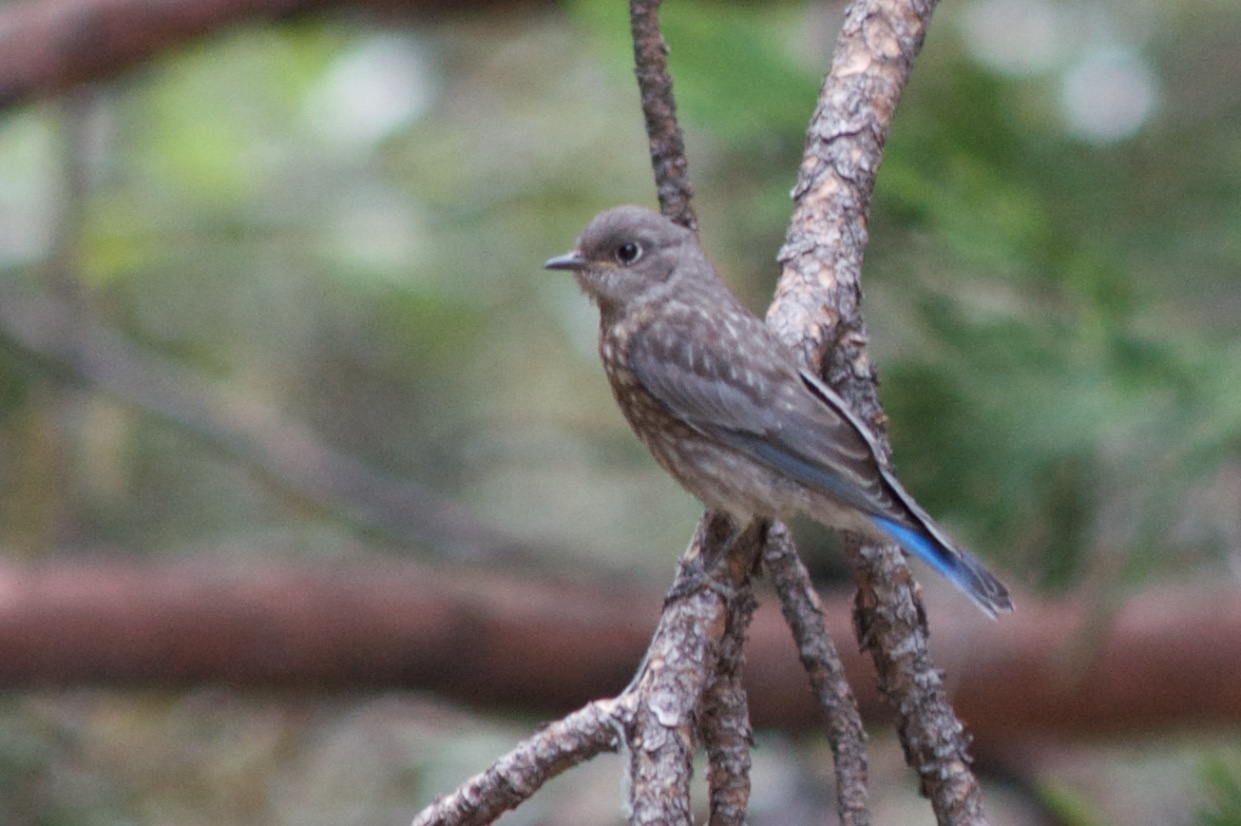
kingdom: Animalia
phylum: Chordata
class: Aves
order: Passeriformes
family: Turdidae
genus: Sialia
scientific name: Sialia mexicana
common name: Western bluebird
